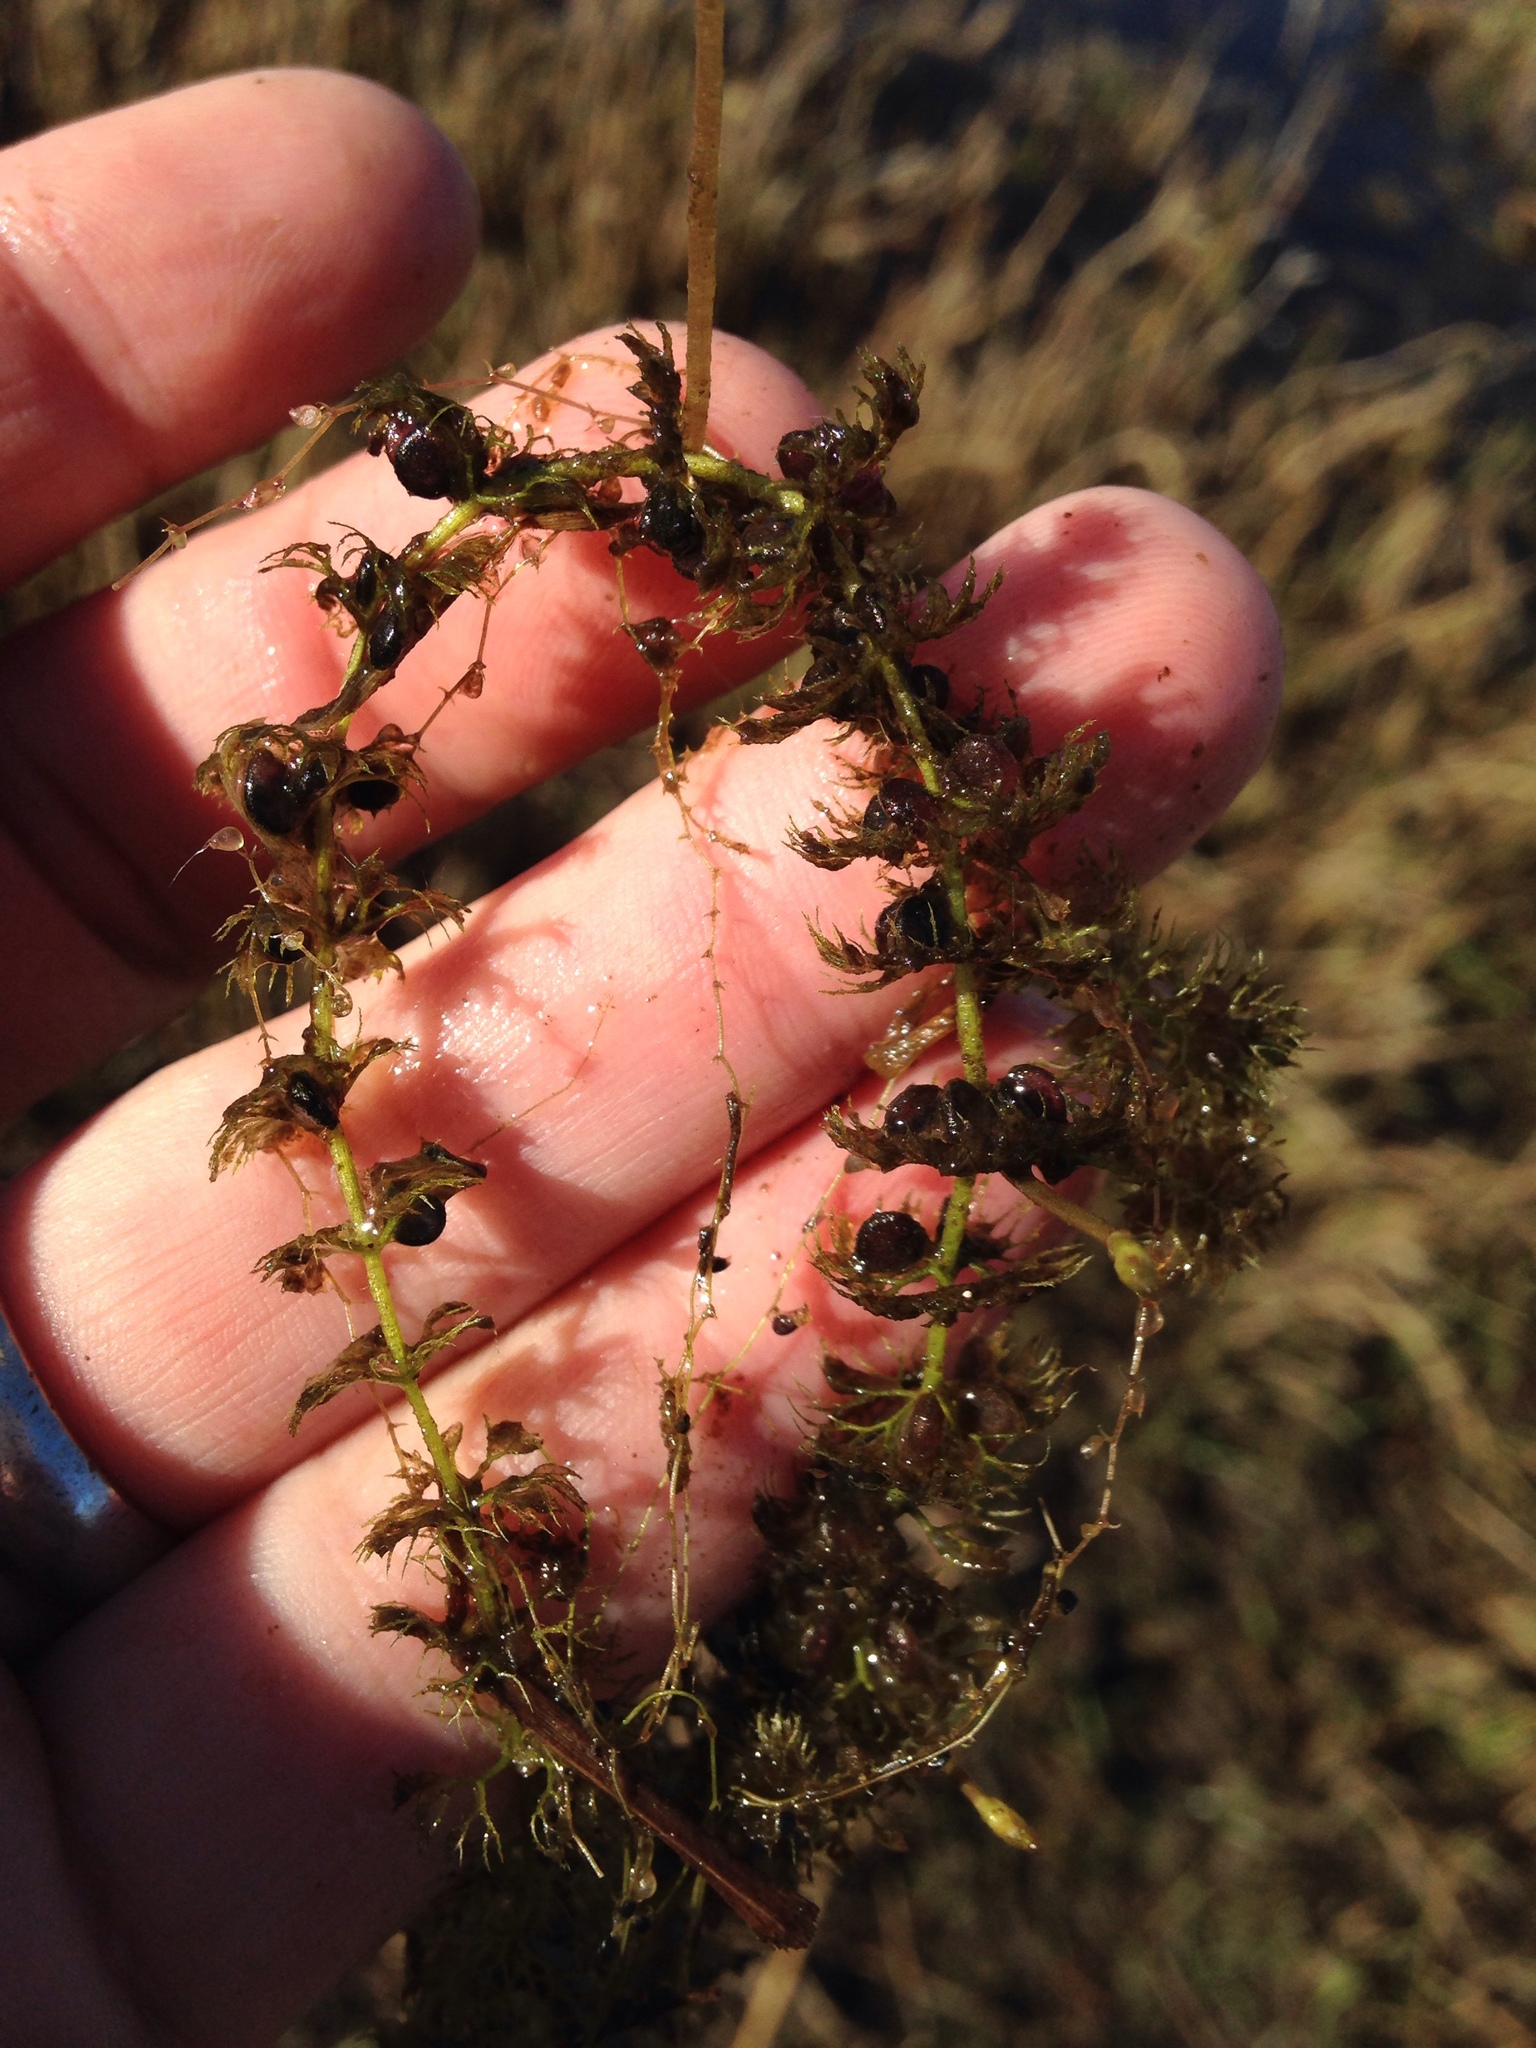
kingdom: Plantae
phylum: Tracheophyta
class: Magnoliopsida
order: Lamiales
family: Lentibulariaceae
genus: Utricularia
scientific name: Utricularia reflexa
